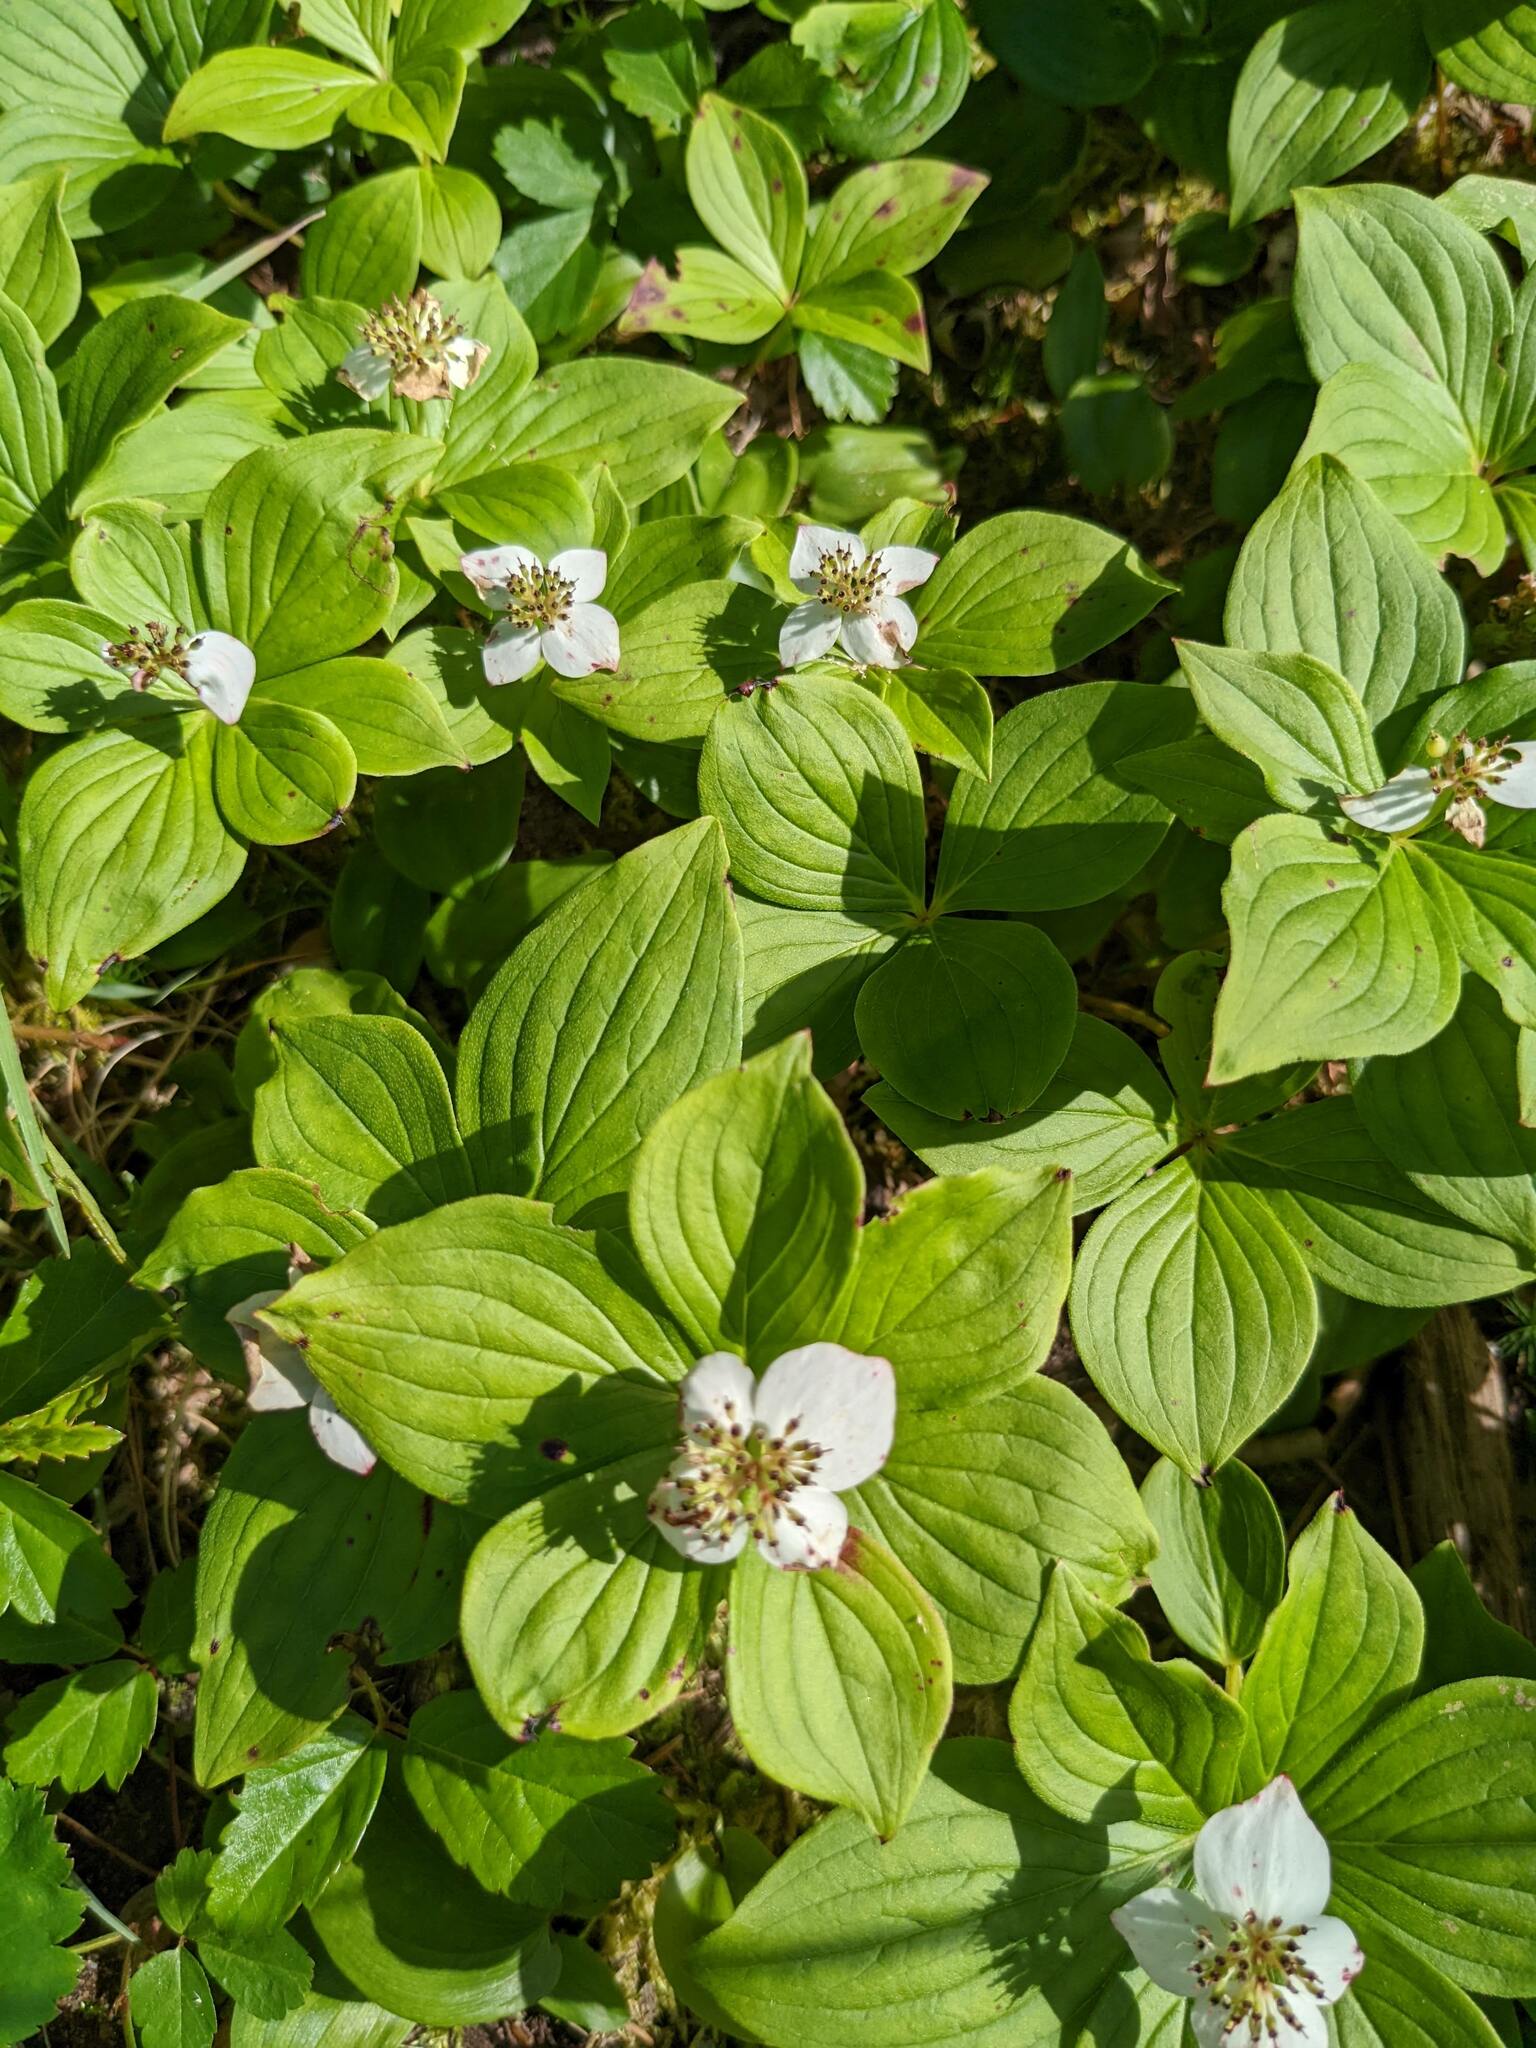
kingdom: Plantae
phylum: Tracheophyta
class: Magnoliopsida
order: Cornales
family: Cornaceae
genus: Cornus
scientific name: Cornus canadensis
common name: Creeping dogwood
